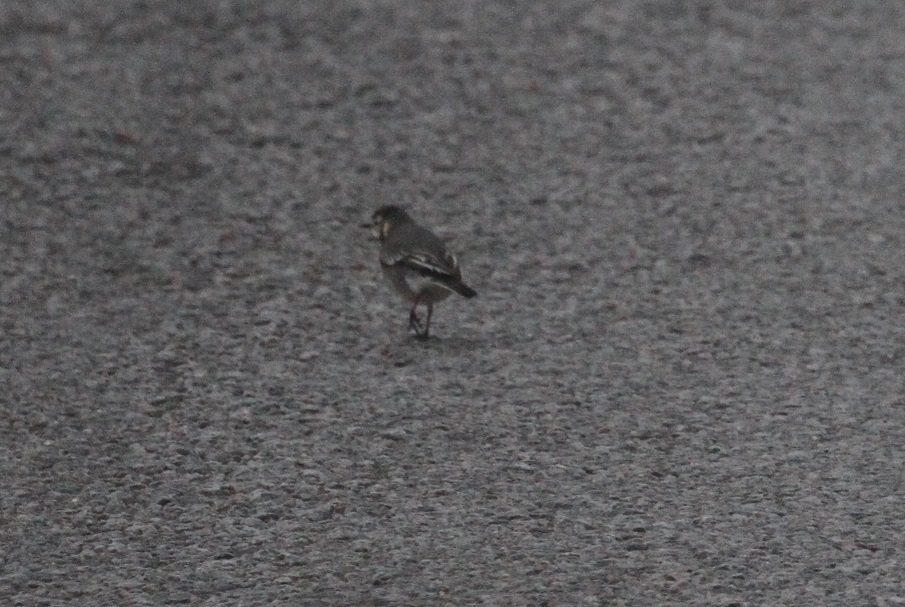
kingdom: Animalia
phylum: Chordata
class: Aves
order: Passeriformes
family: Motacillidae
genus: Motacilla
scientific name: Motacilla alba
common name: White wagtail
